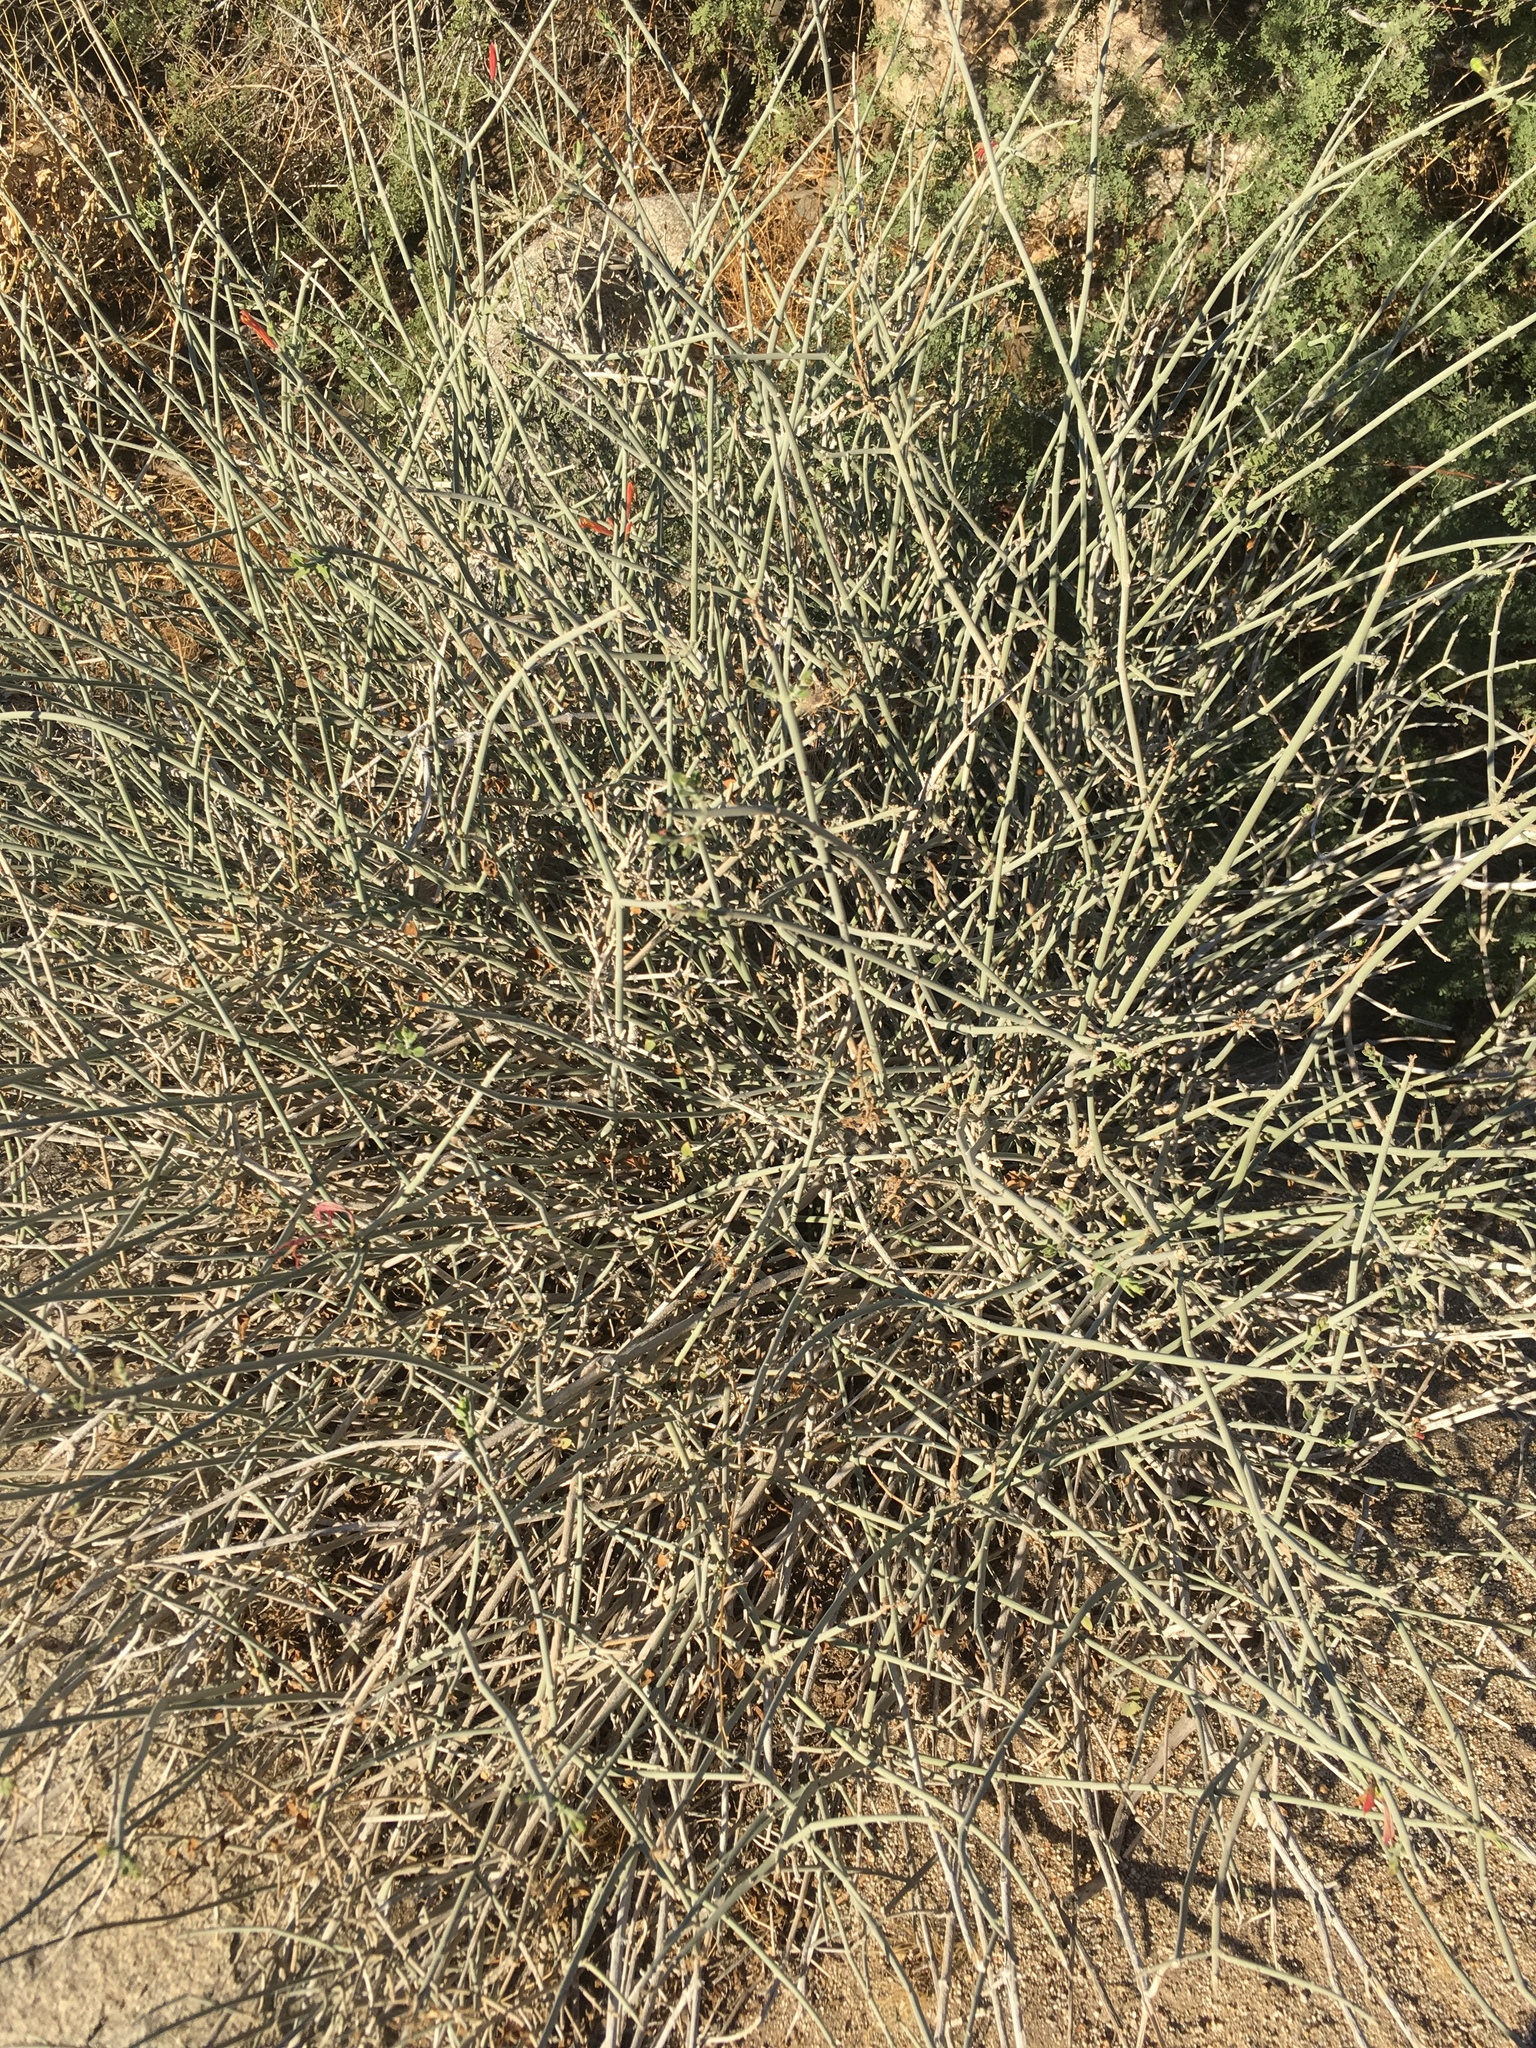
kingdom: Plantae
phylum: Tracheophyta
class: Magnoliopsida
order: Lamiales
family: Acanthaceae
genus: Justicia
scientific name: Justicia californica
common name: Chuparosa-honeysuckle
